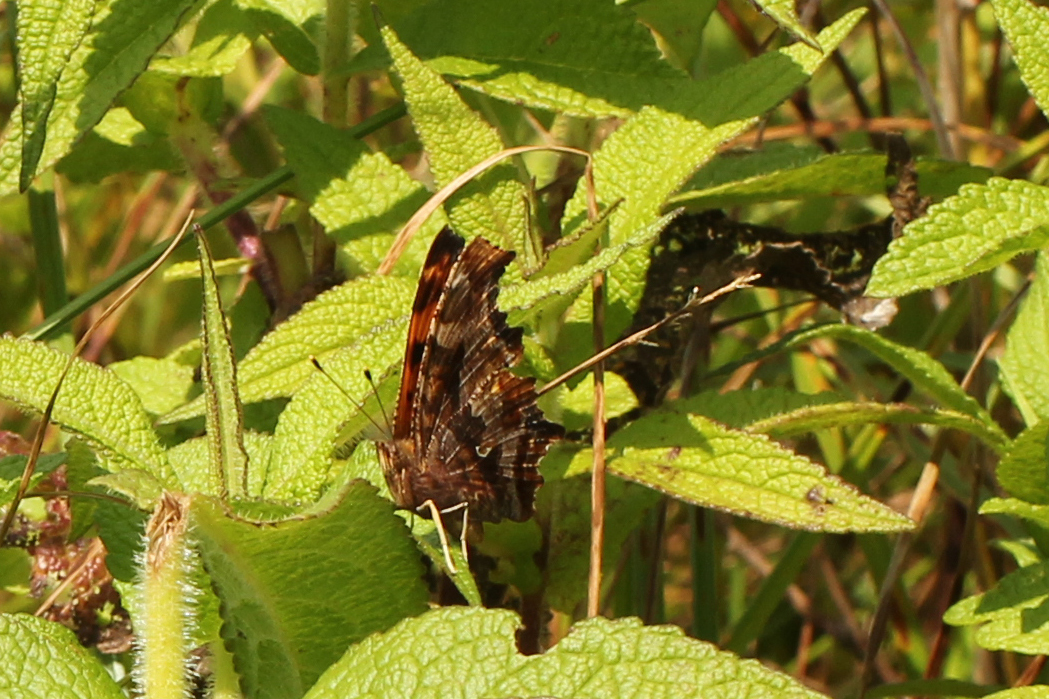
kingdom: Animalia
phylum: Arthropoda
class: Insecta
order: Lepidoptera
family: Nymphalidae
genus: Polygonia
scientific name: Polygonia comma
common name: Eastern comma
